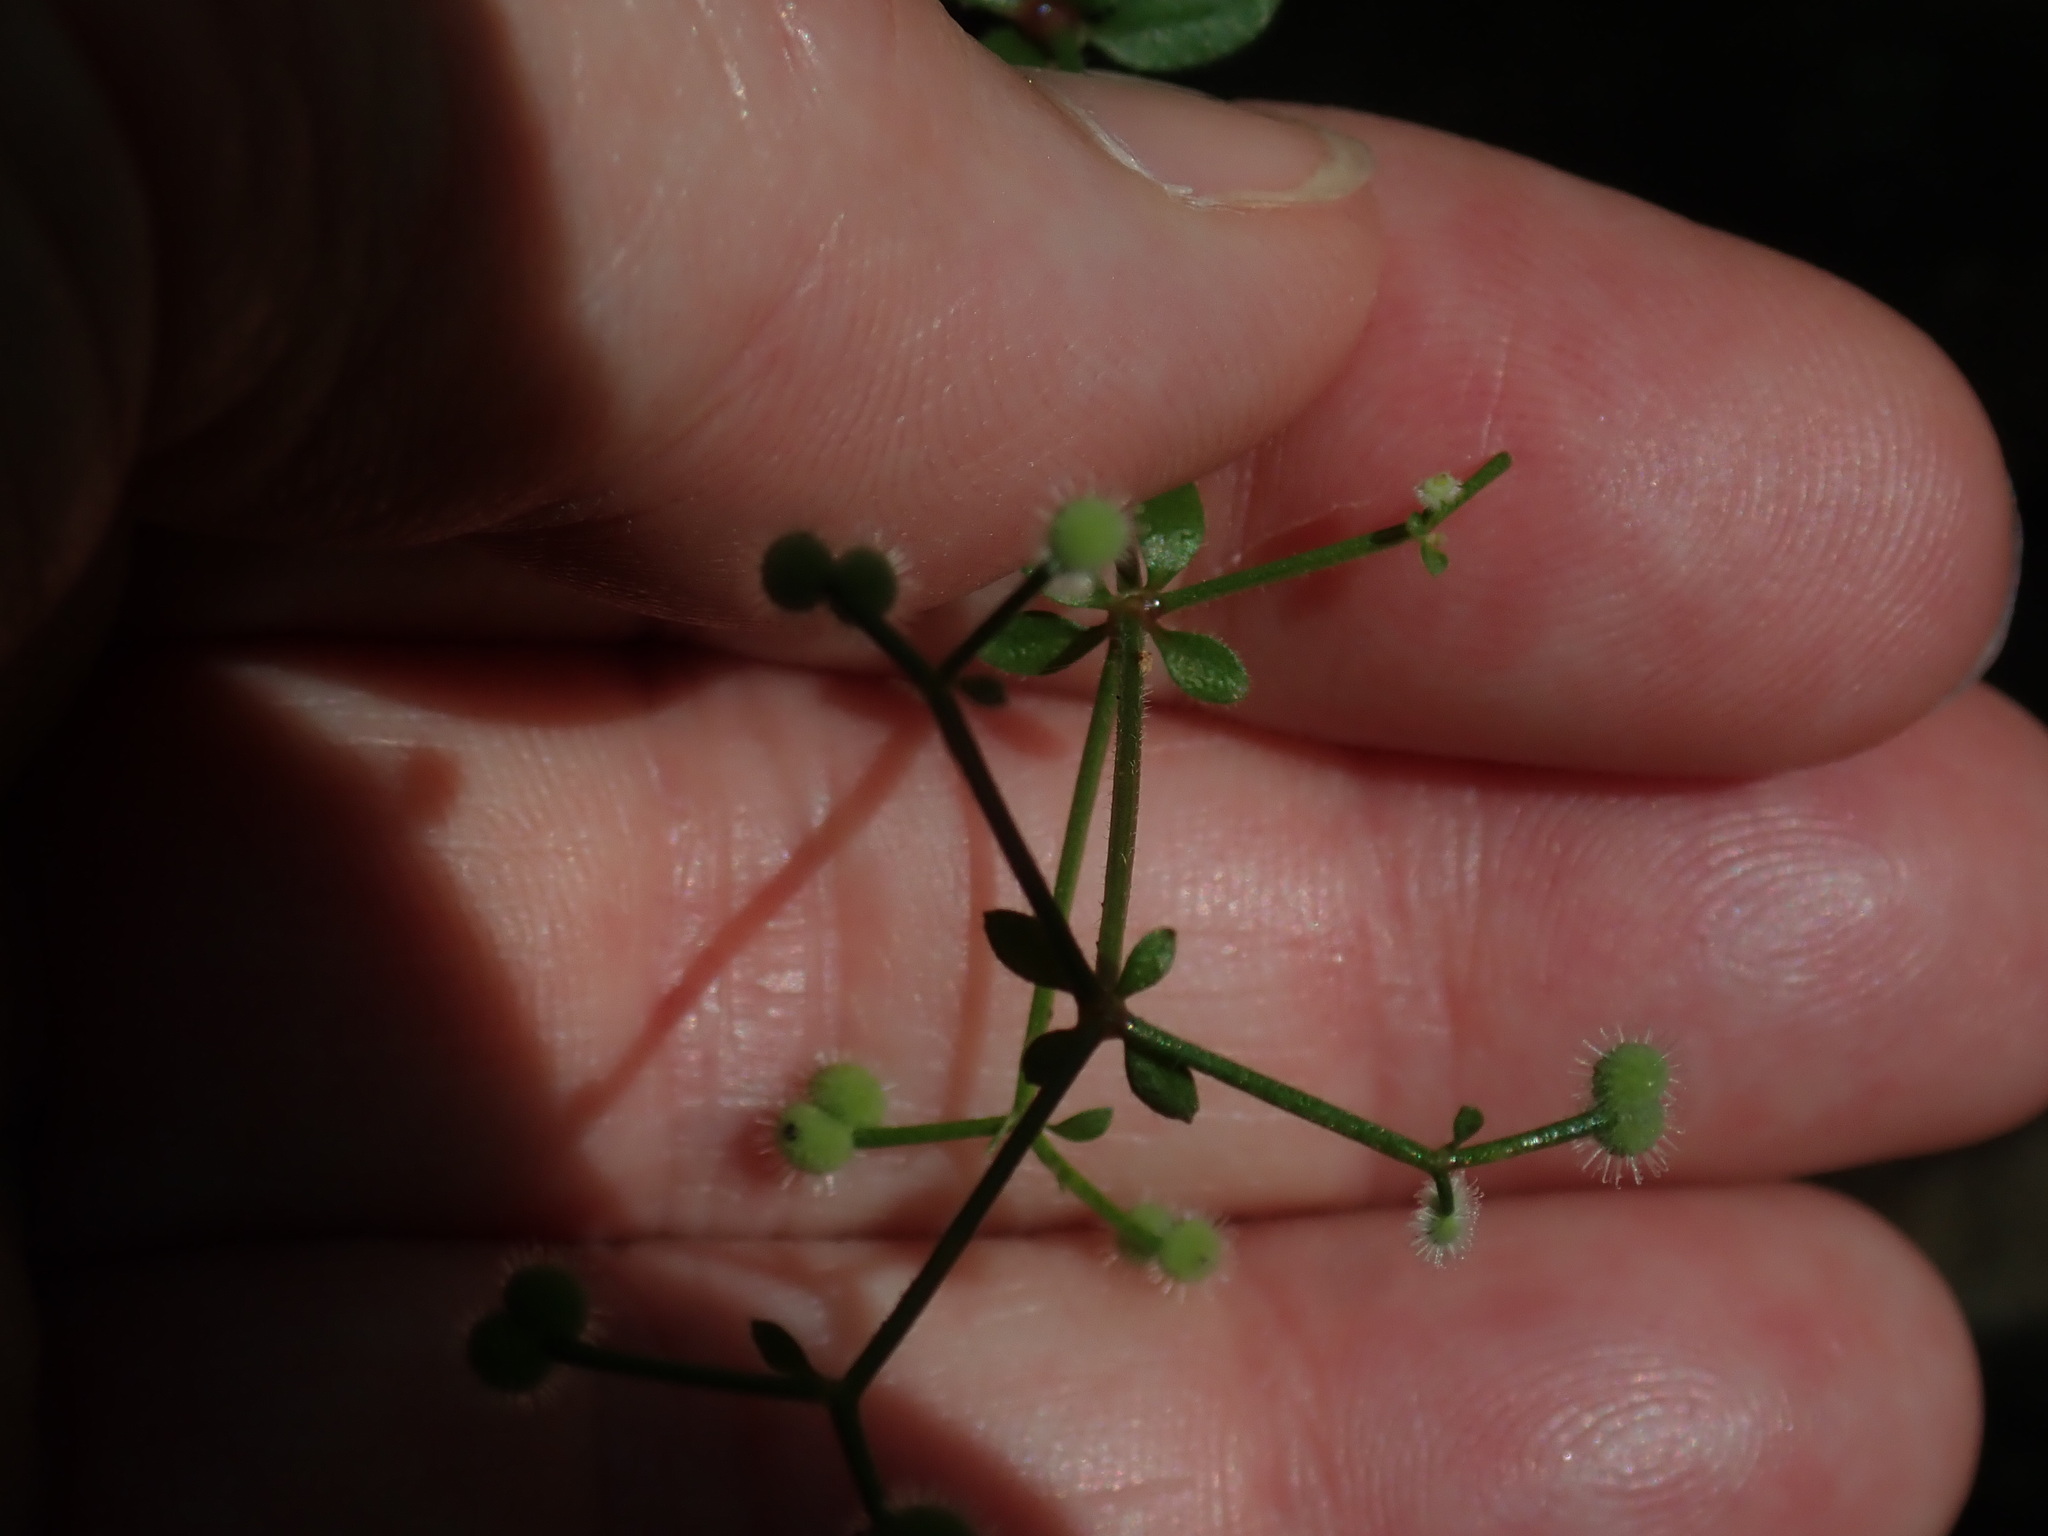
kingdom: Plantae
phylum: Tracheophyta
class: Magnoliopsida
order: Gentianales
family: Rubiaceae
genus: Galium
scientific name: Galium pilosum
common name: Hairy bedstraw
